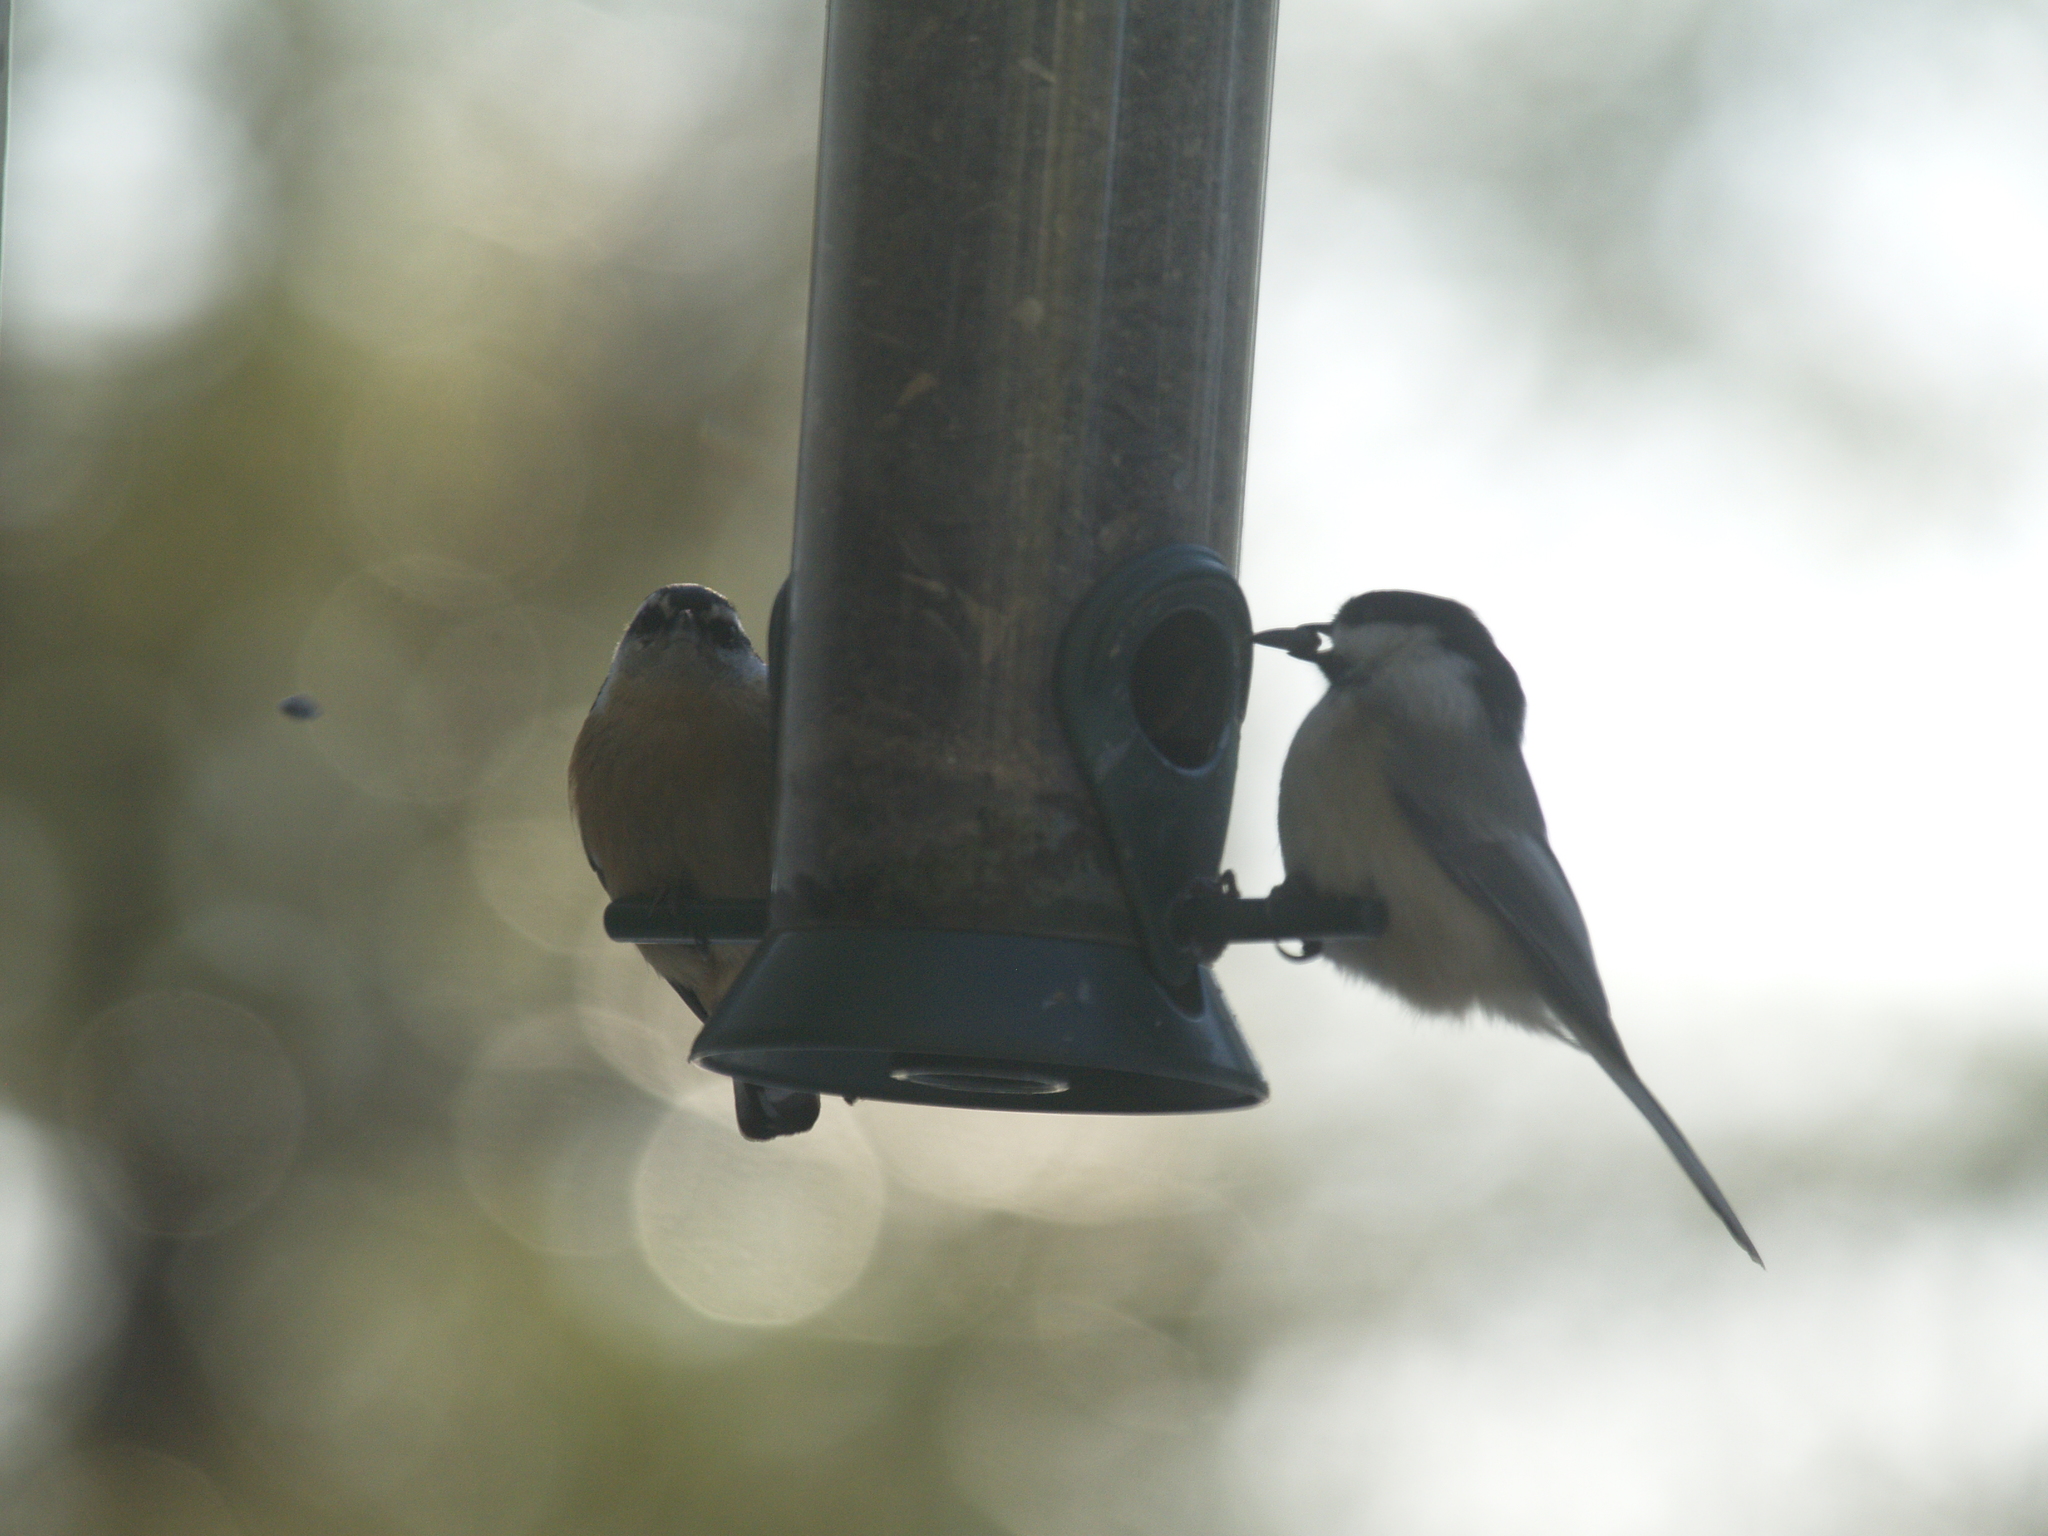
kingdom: Animalia
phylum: Chordata
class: Aves
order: Passeriformes
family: Paridae
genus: Poecile
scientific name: Poecile atricapillus
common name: Black-capped chickadee
